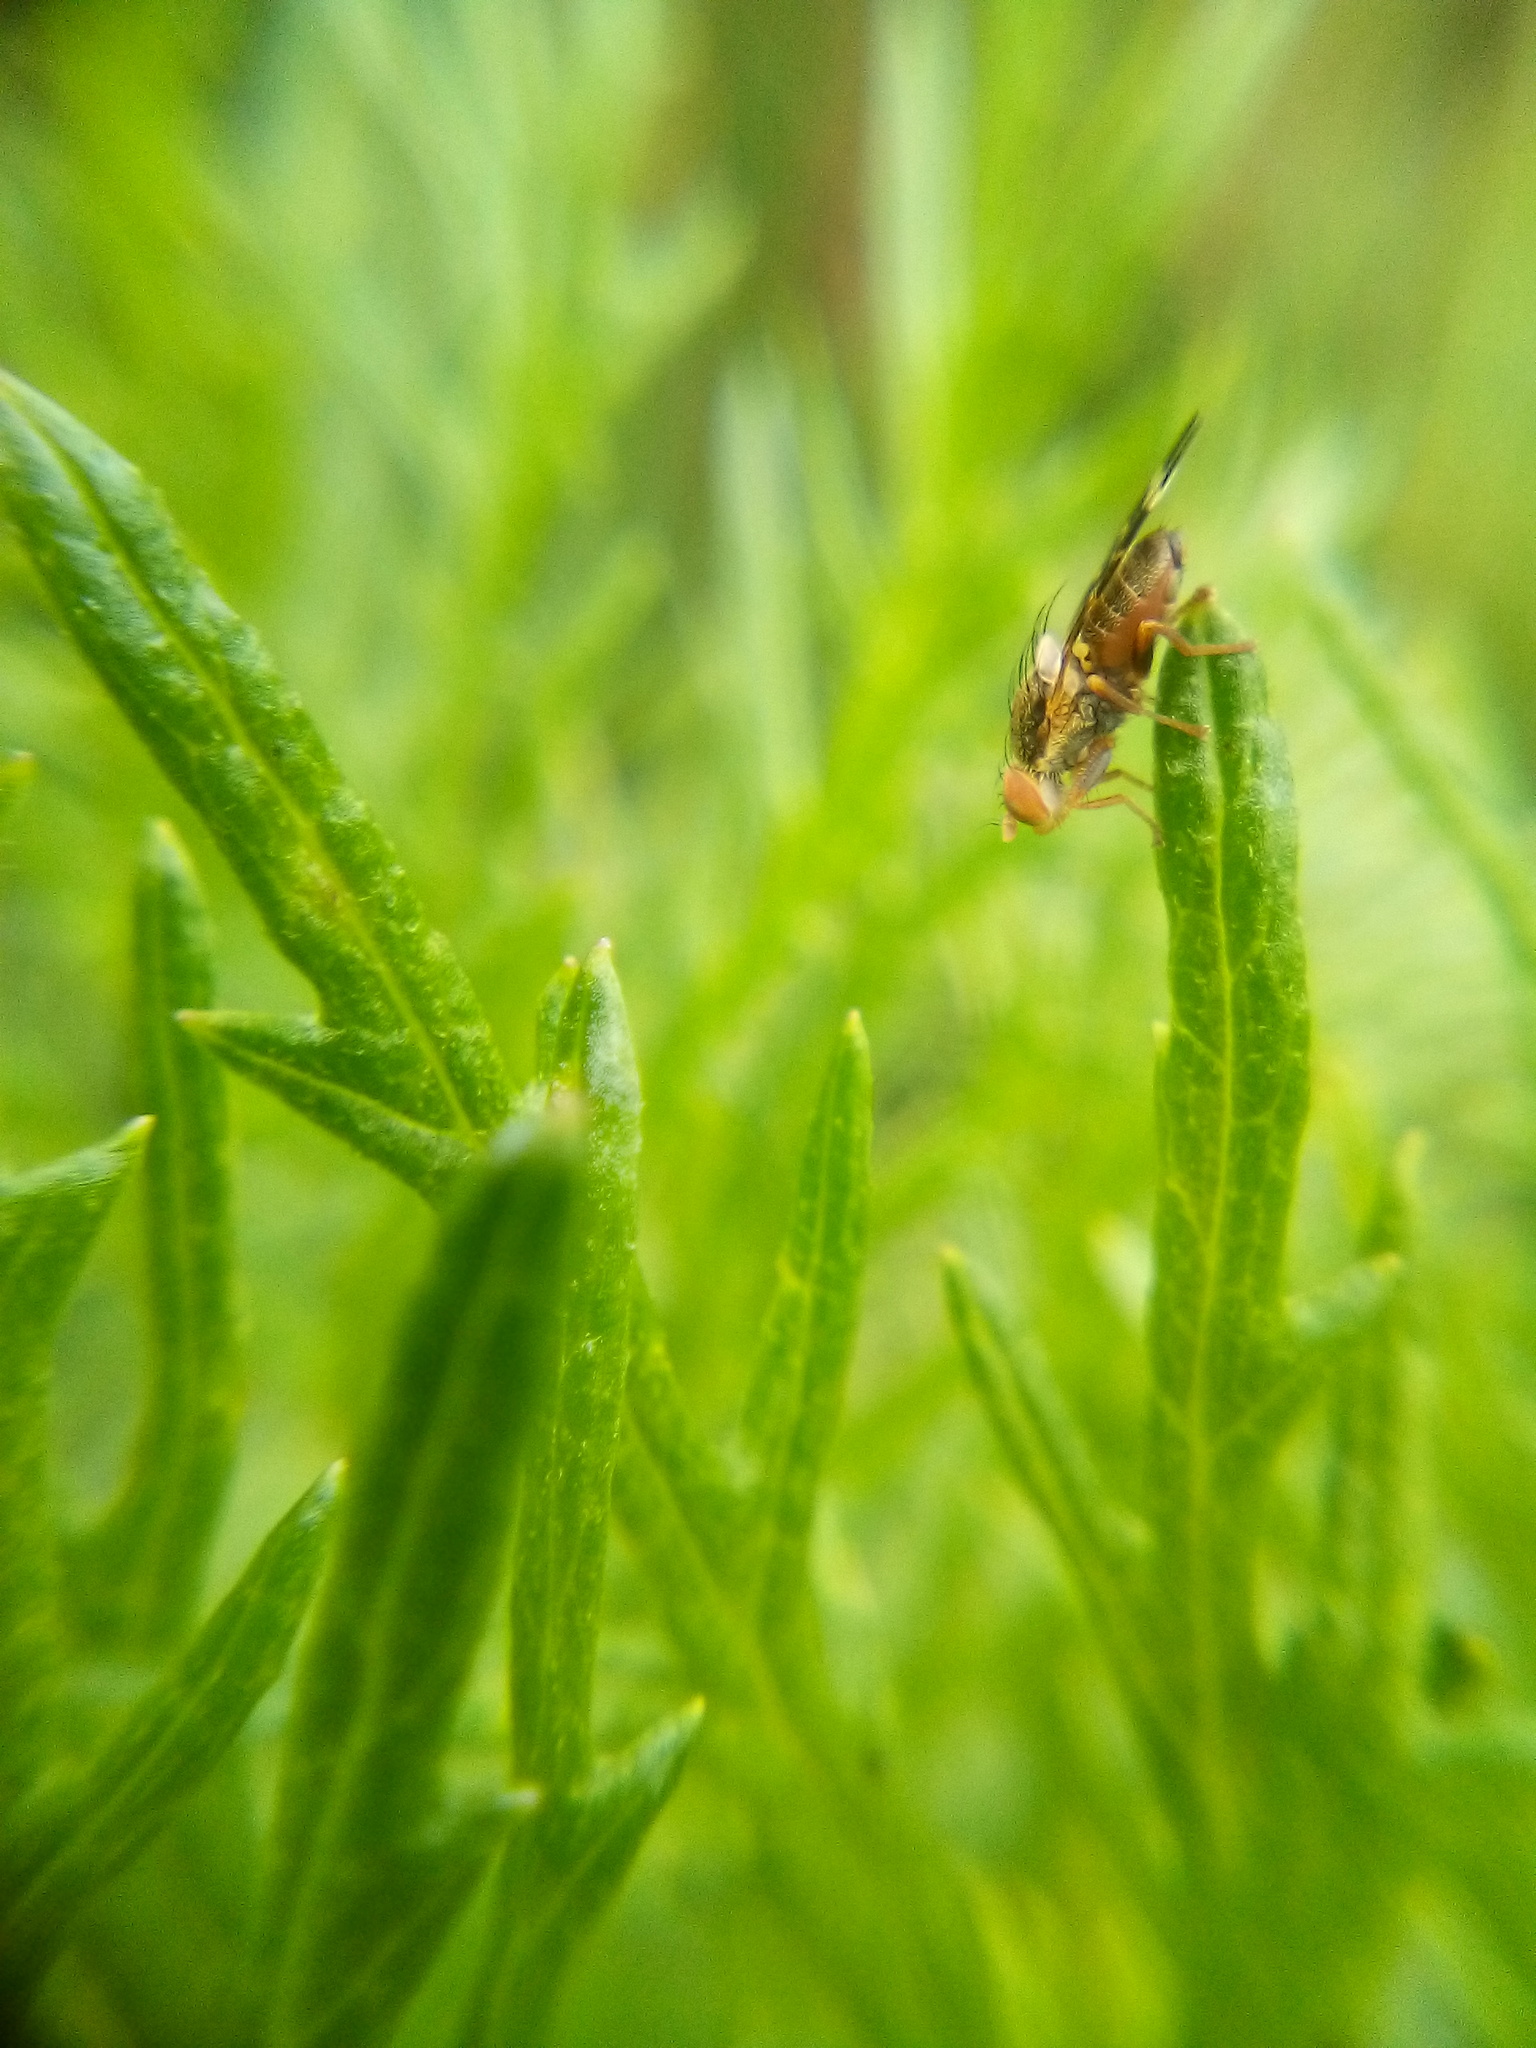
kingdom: Animalia
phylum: Arthropoda
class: Insecta
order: Diptera
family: Tephritidae
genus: Sphenella
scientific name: Sphenella
